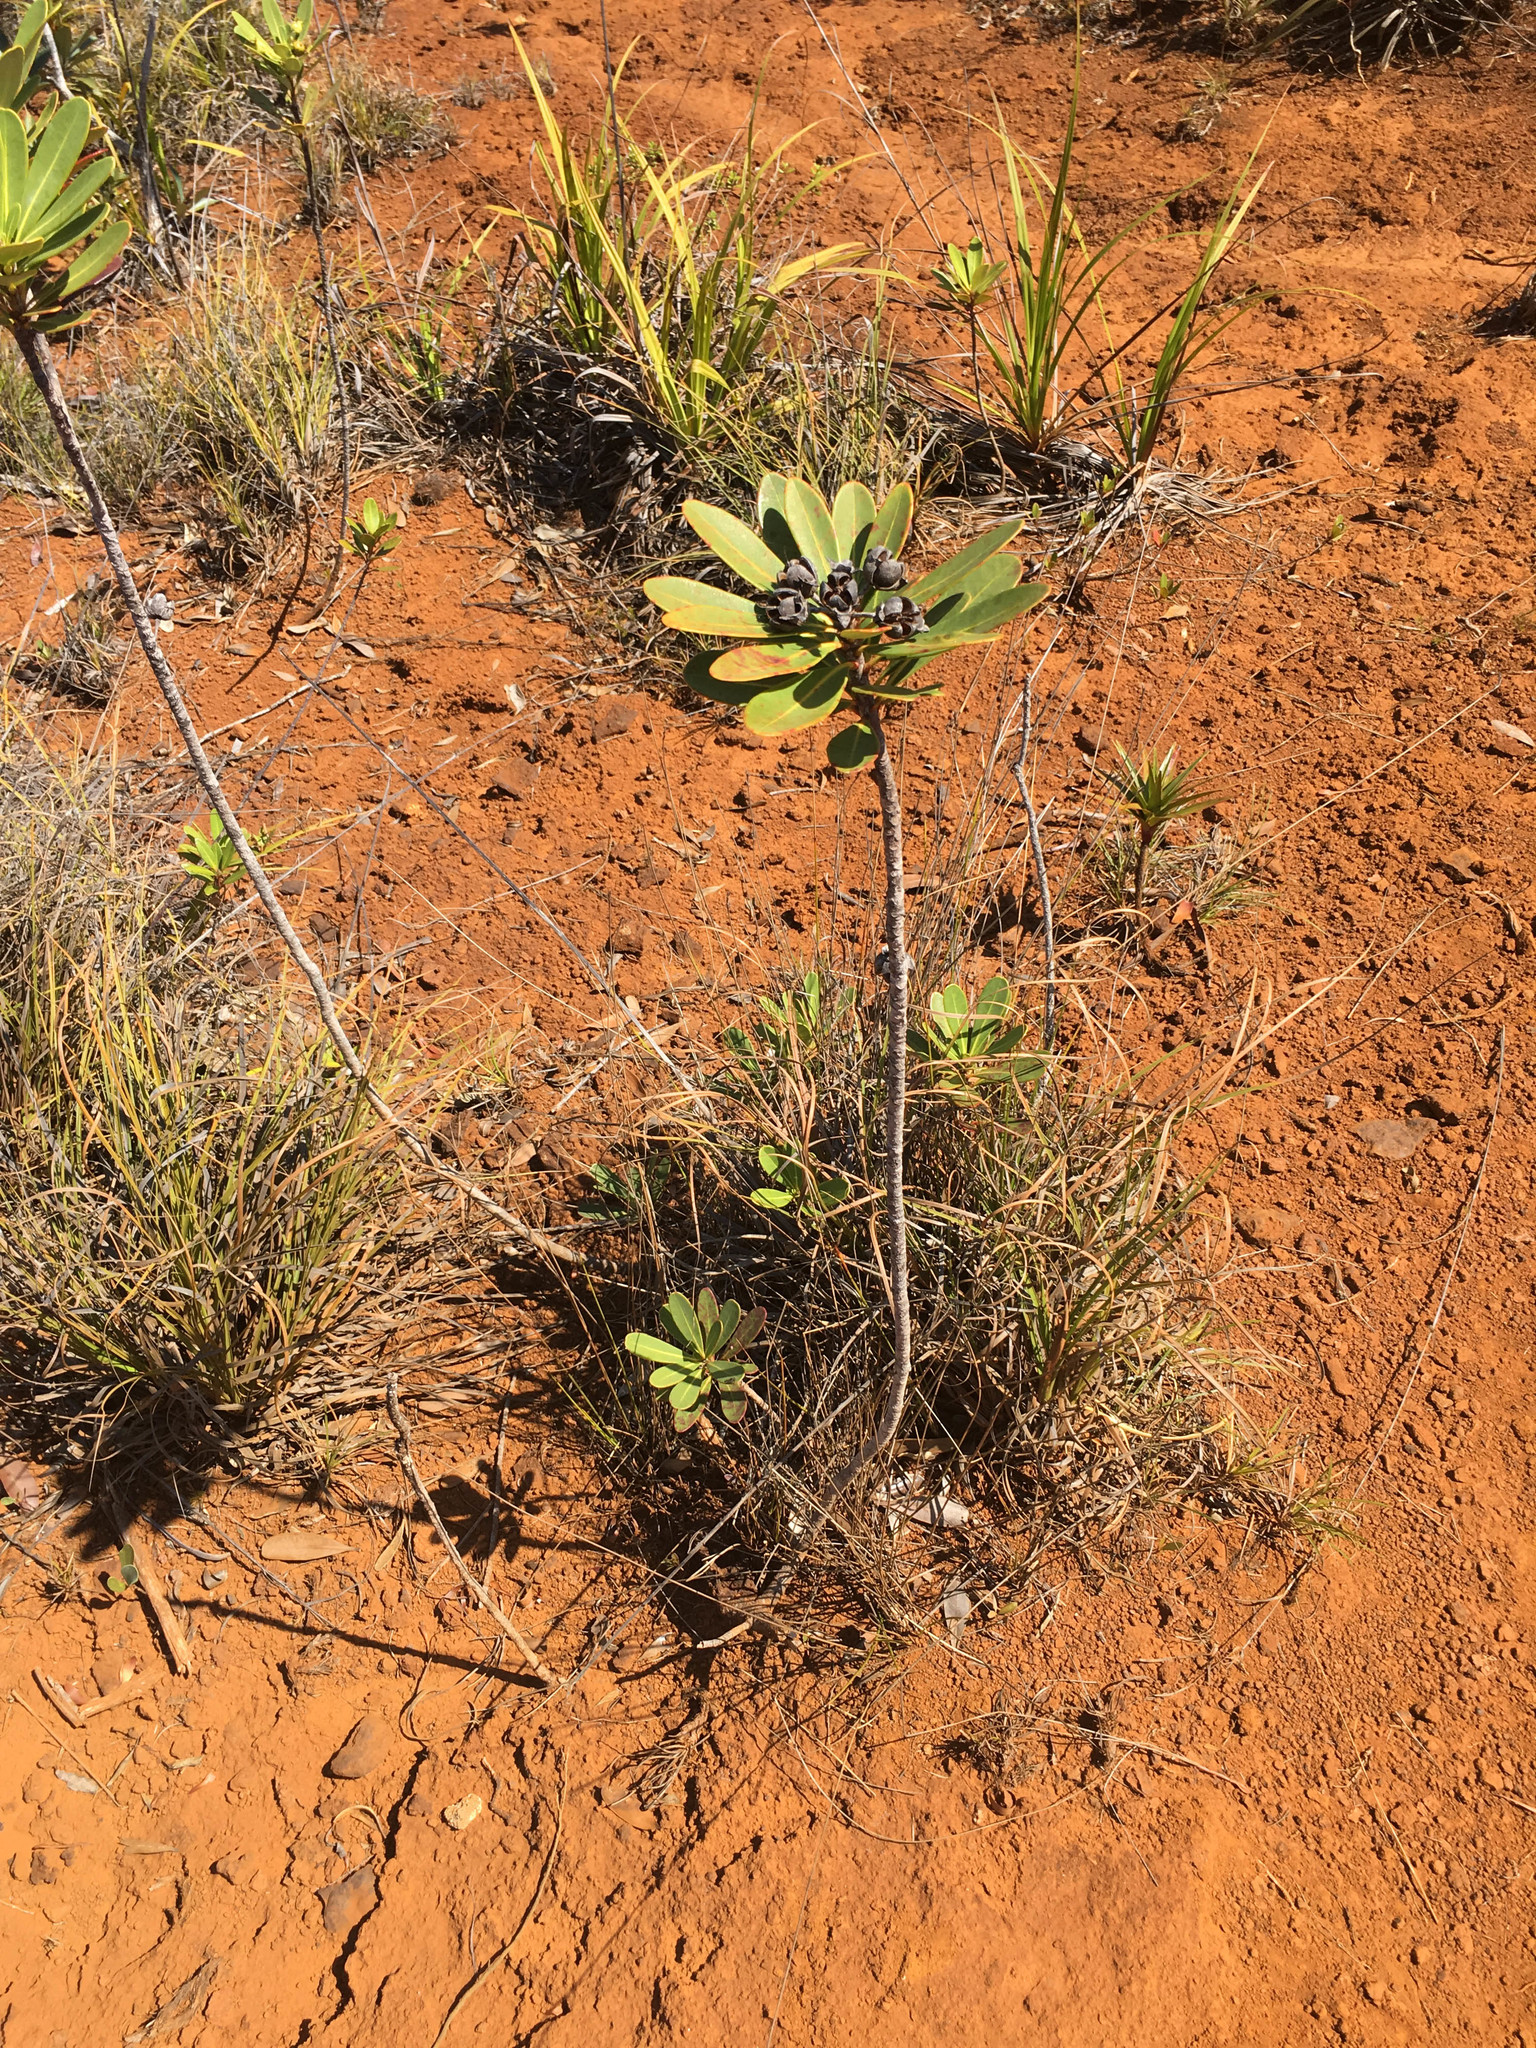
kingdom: Plantae
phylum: Tracheophyta
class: Magnoliopsida
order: Myrtales
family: Myrtaceae
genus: Xanthostemon
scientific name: Xanthostemon aurantiacus
